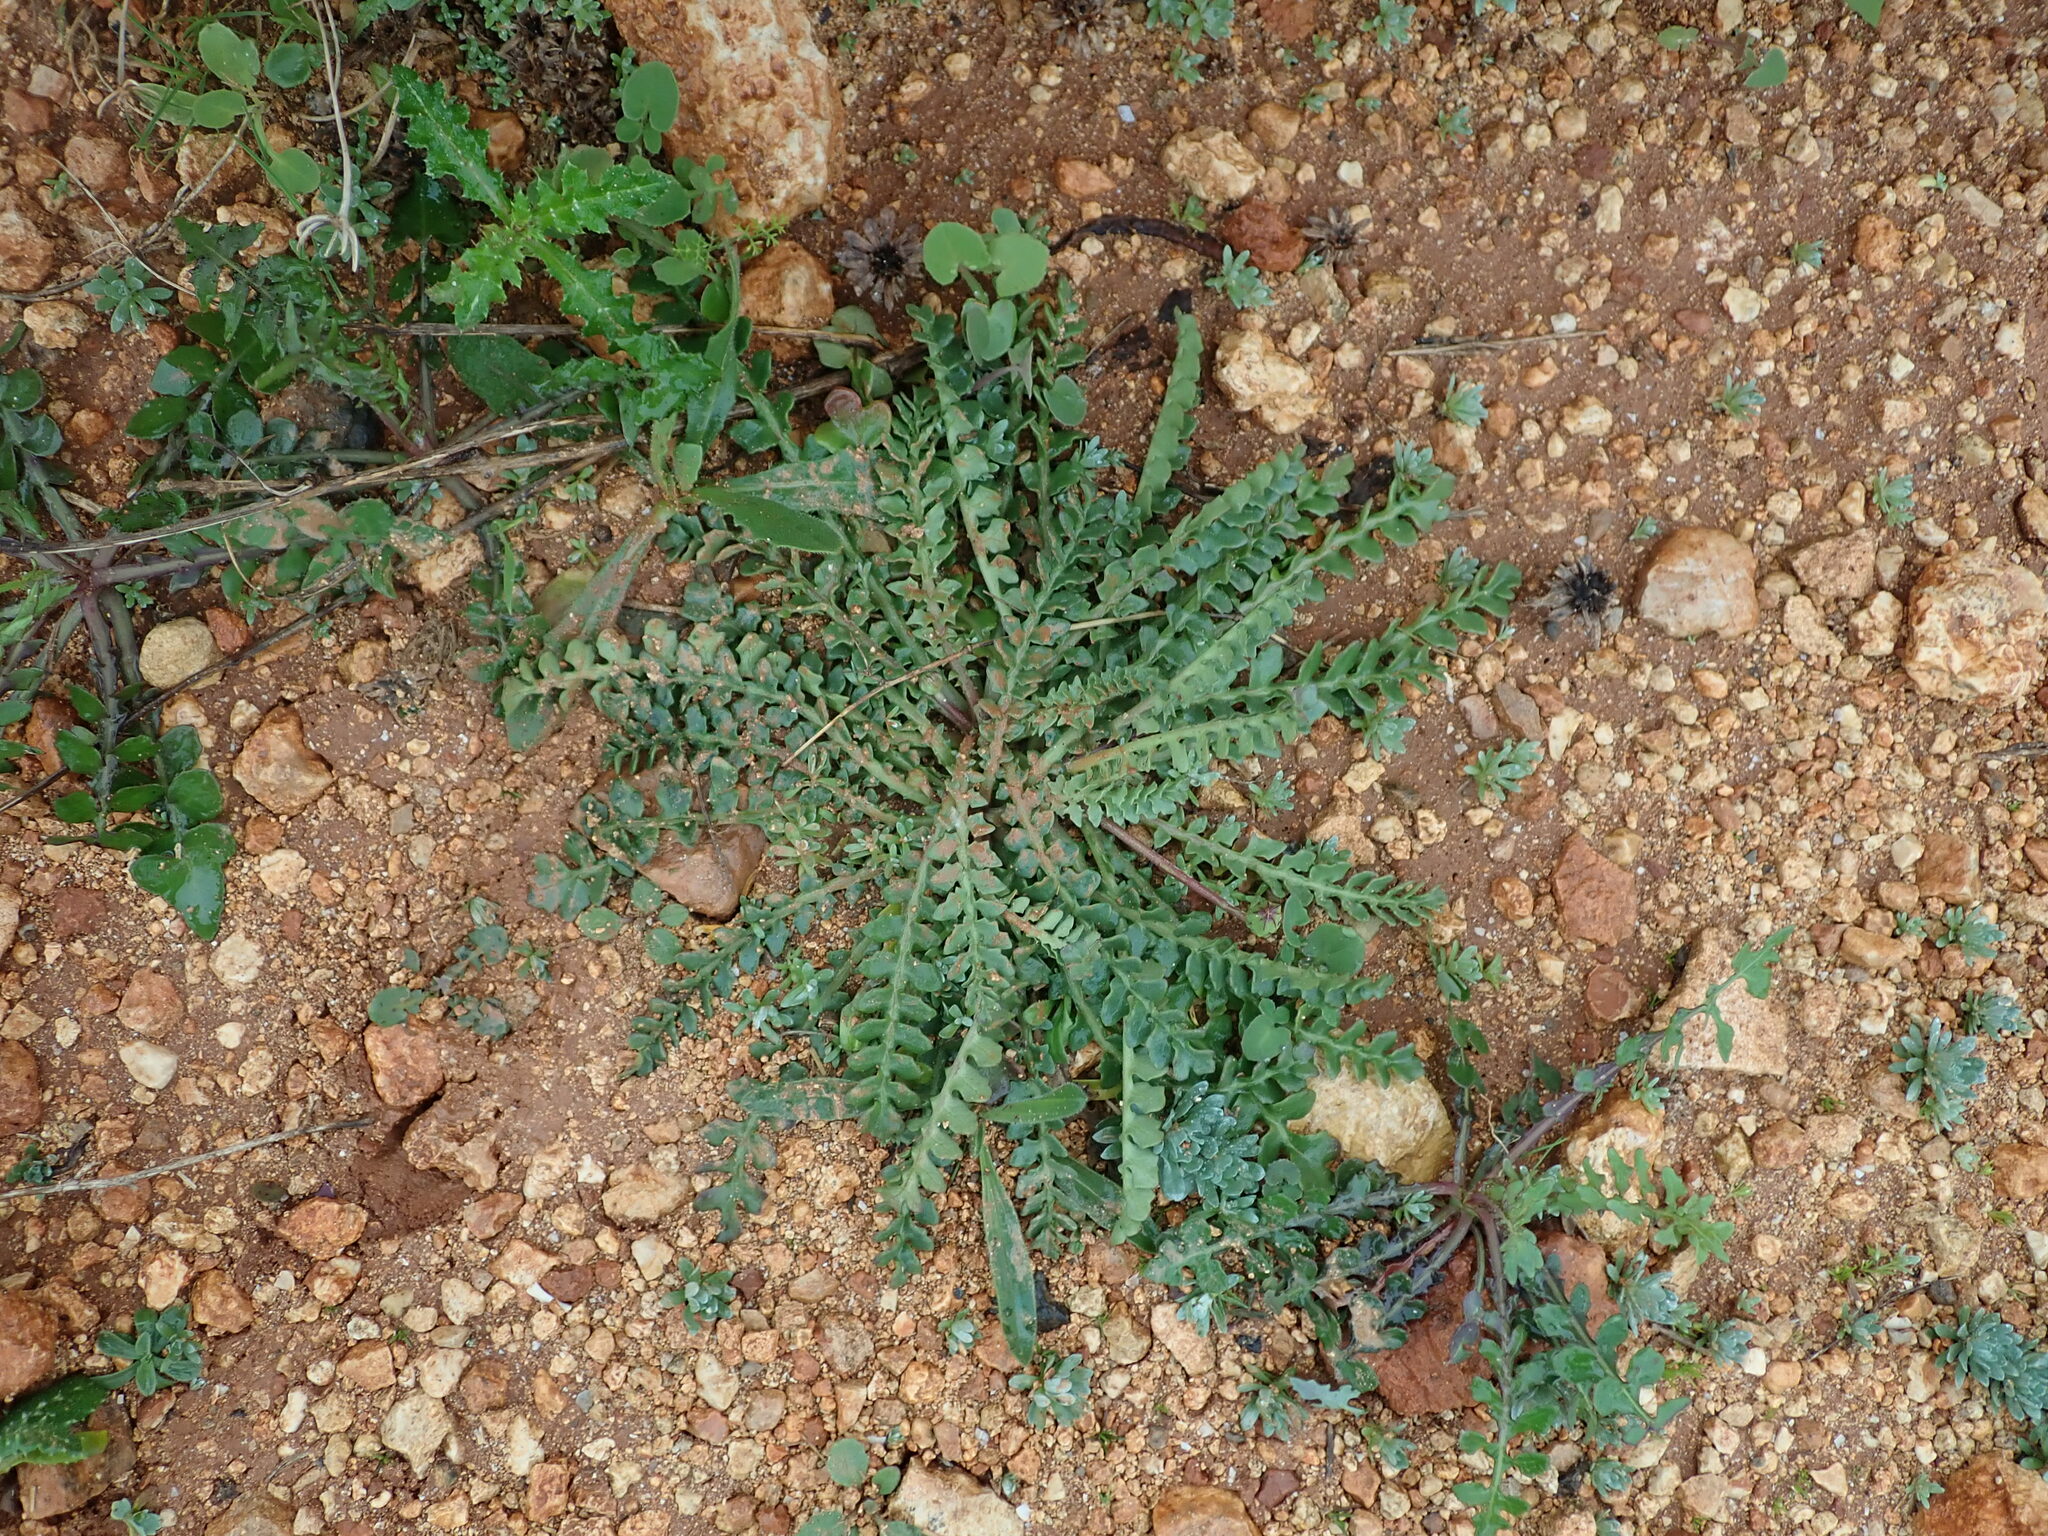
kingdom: Plantae
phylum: Tracheophyta
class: Magnoliopsida
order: Asterales
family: Asteraceae
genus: Hyoseris
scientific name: Hyoseris lucida
